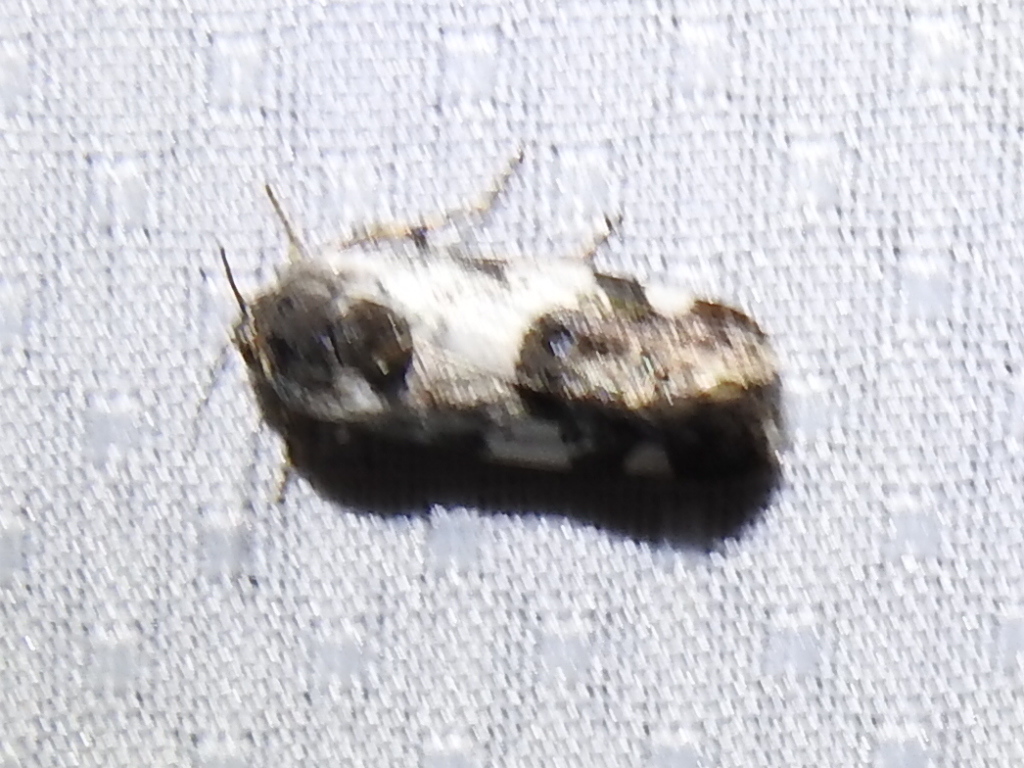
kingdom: Animalia
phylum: Arthropoda
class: Insecta
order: Lepidoptera
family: Noctuidae
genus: Acontia
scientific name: Acontia Tarache abdominalis
